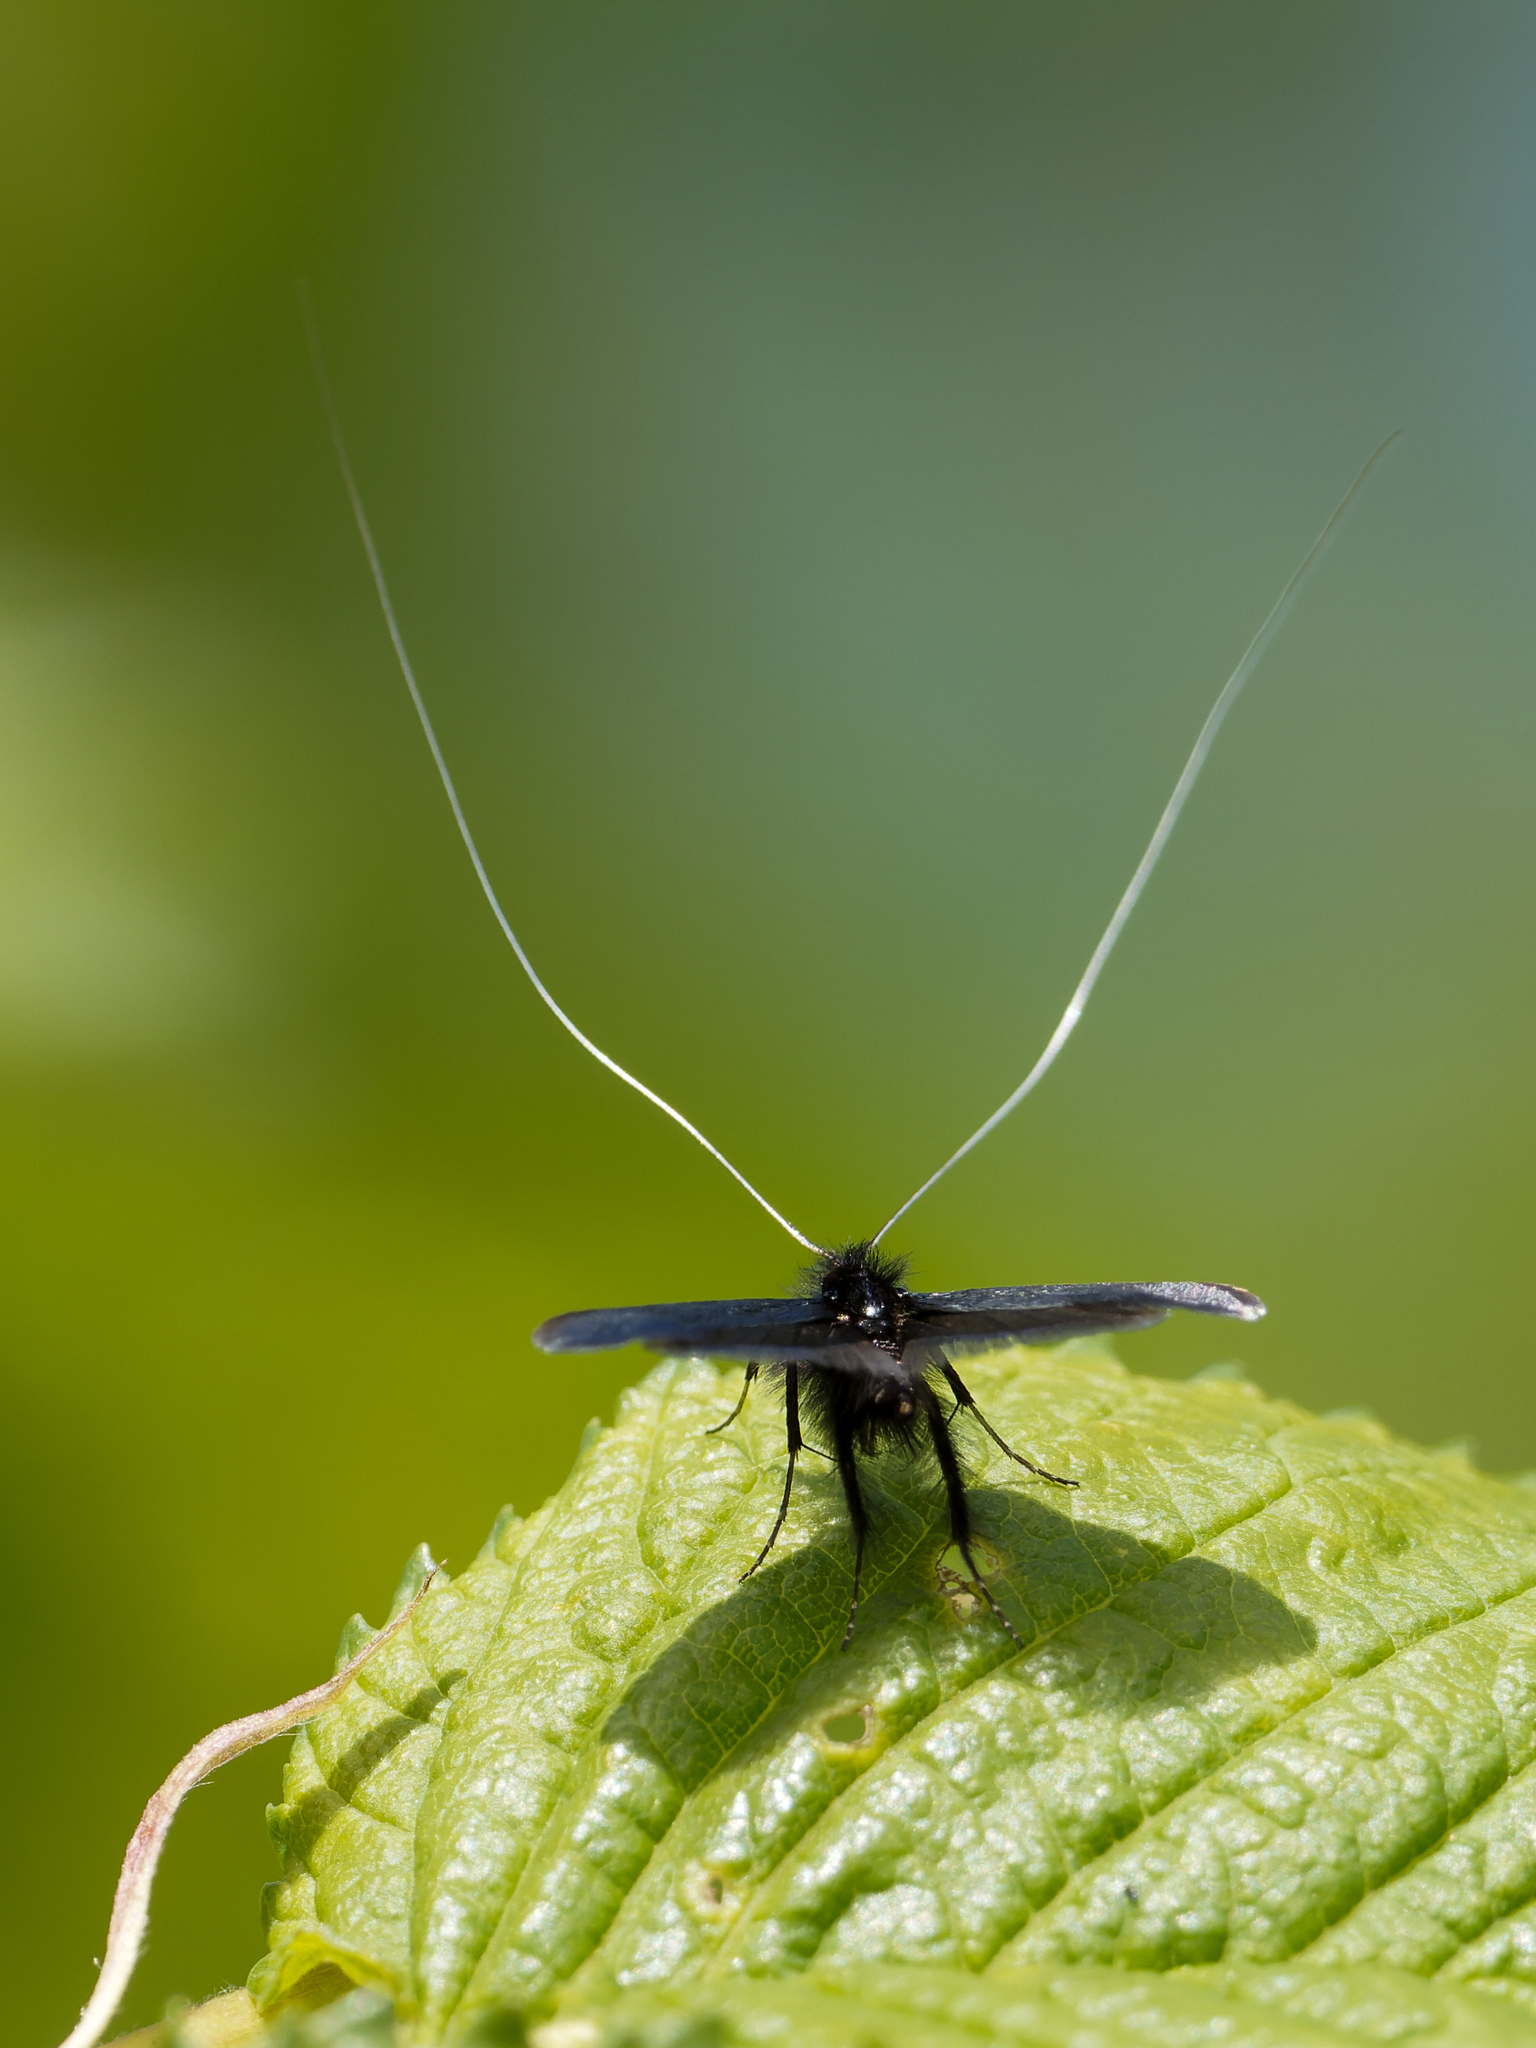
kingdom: Animalia
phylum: Arthropoda
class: Insecta
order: Lepidoptera
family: Adelidae
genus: Adela
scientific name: Adela viridella
